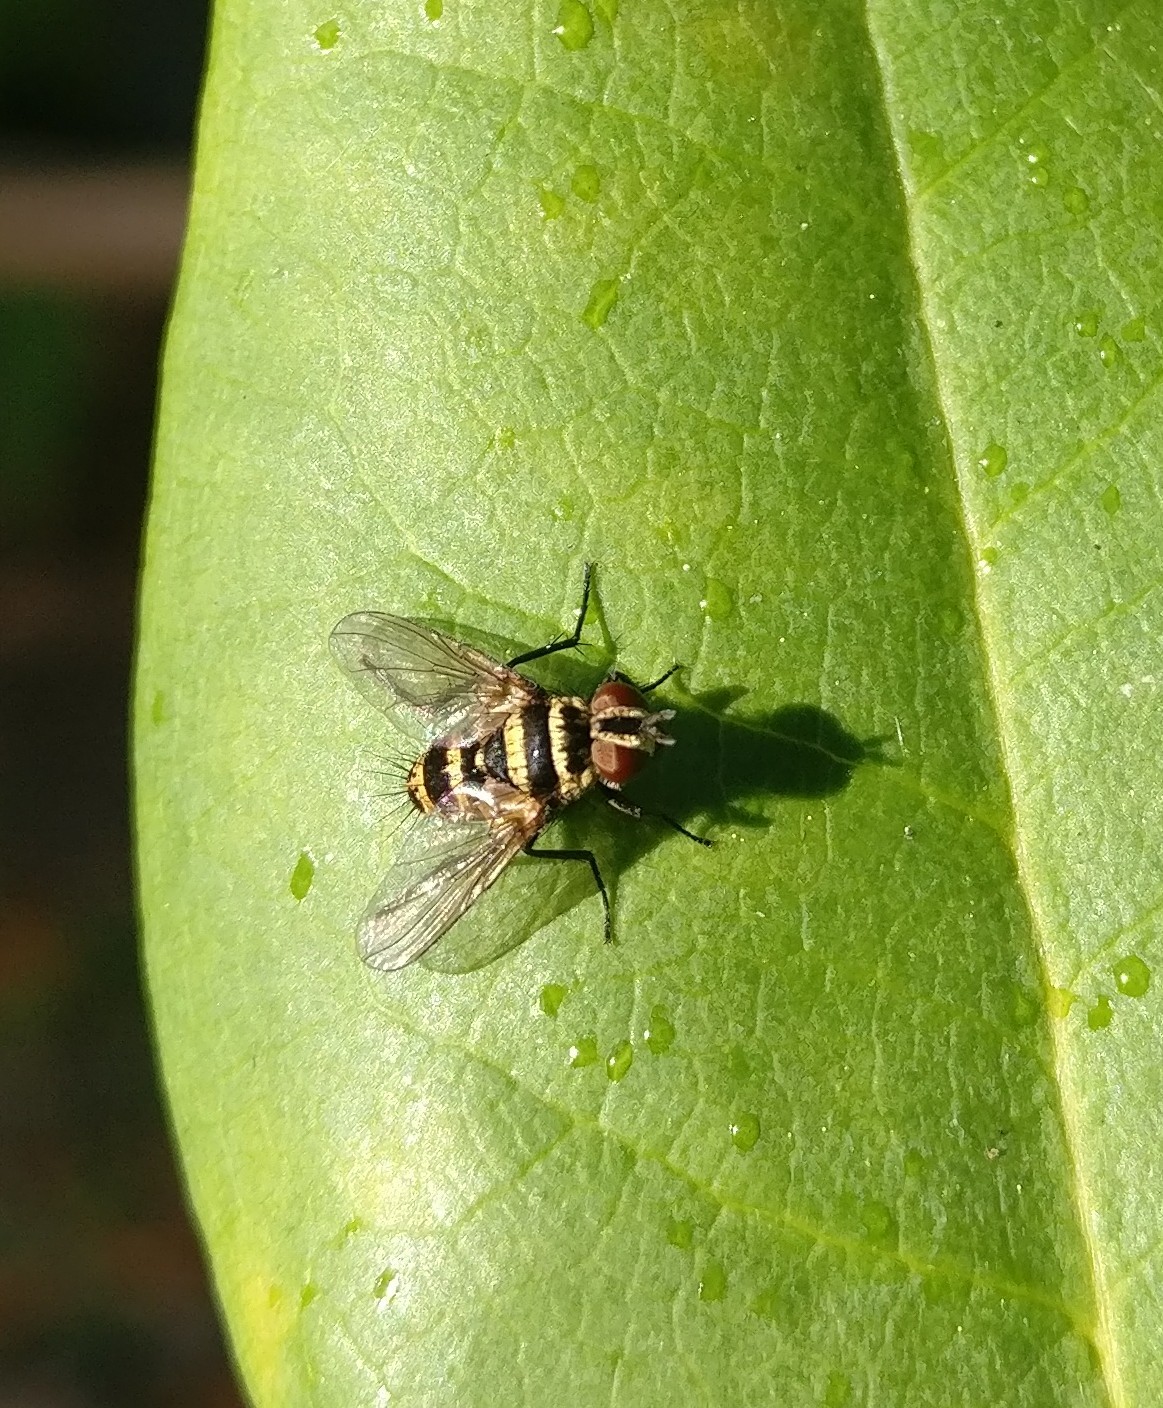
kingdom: Animalia
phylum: Arthropoda
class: Insecta
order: Diptera
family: Tachinidae
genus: Trigonospila
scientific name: Trigonospila brevifacies
